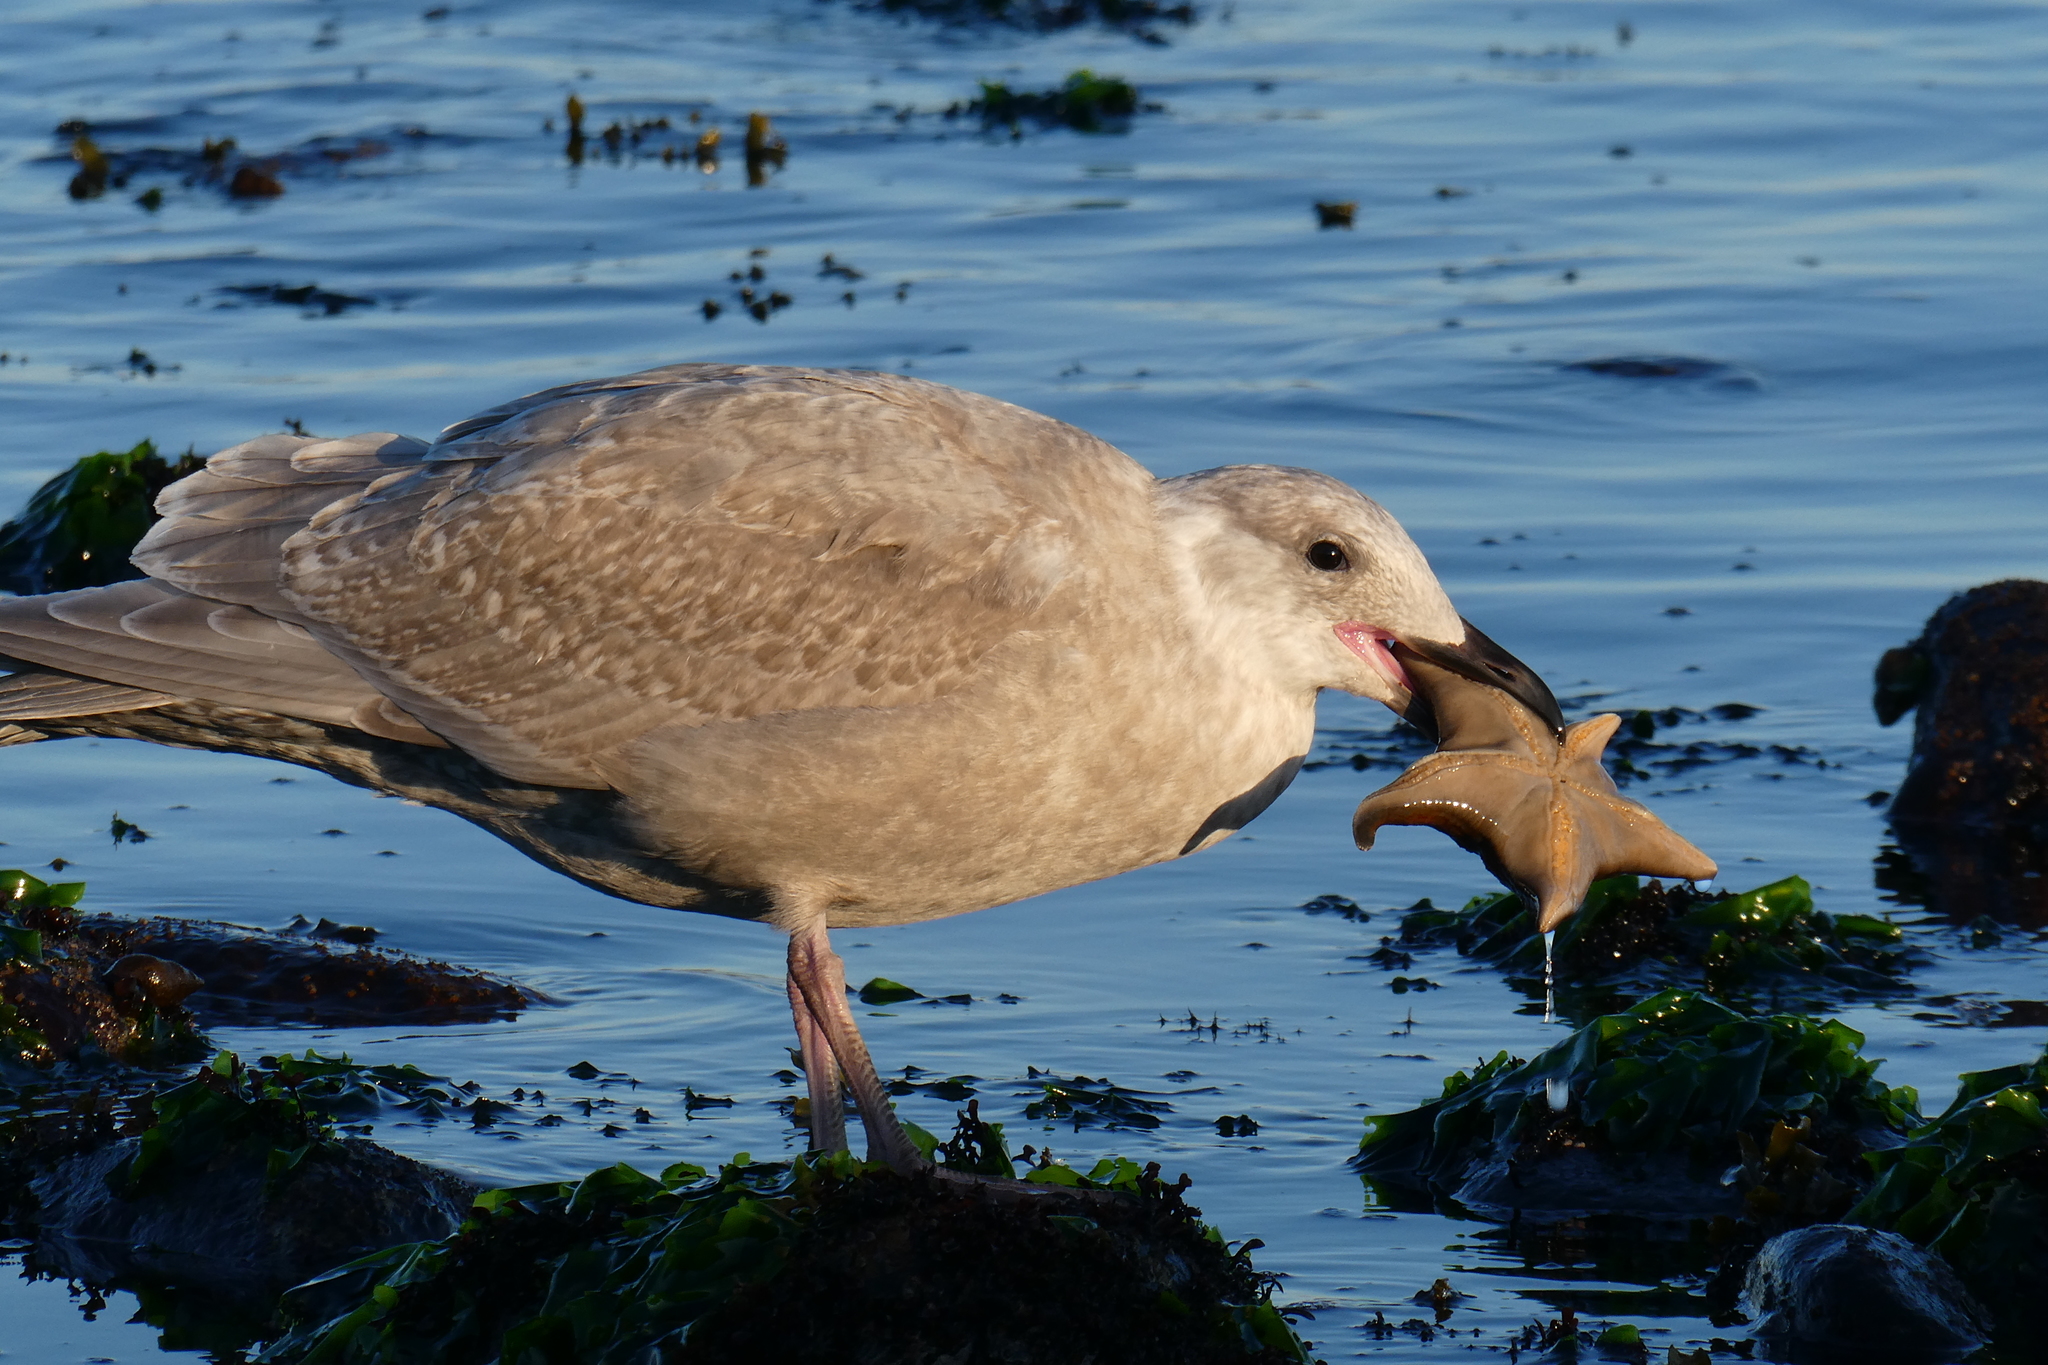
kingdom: Animalia
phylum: Chordata
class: Aves
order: Charadriiformes
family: Laridae
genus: Larus
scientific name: Larus glaucescens
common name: Glaucous-winged gull
